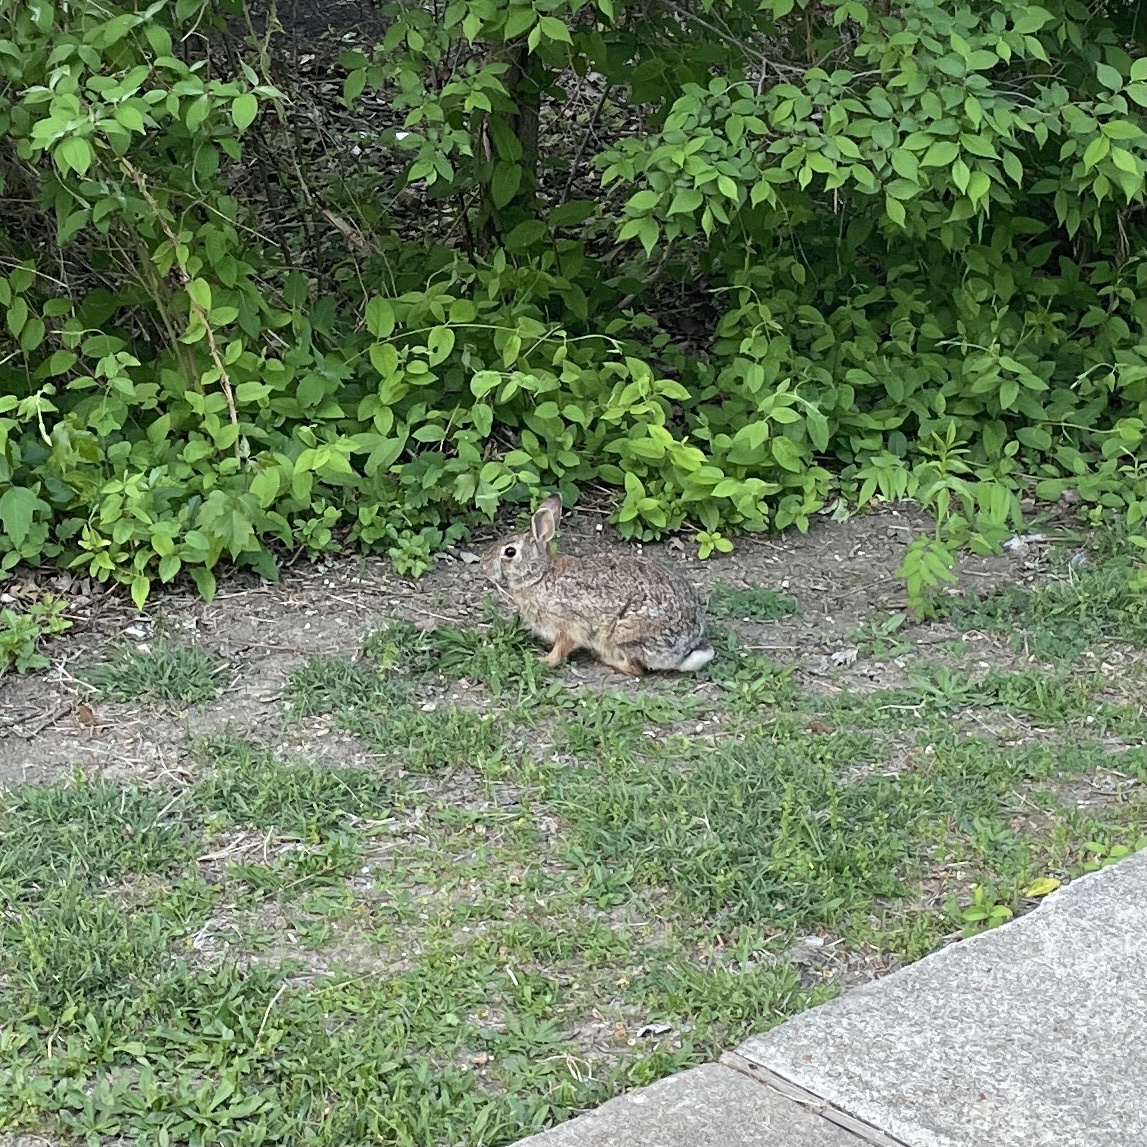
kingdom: Animalia
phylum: Chordata
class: Mammalia
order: Lagomorpha
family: Leporidae
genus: Sylvilagus
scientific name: Sylvilagus floridanus
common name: Eastern cottontail
